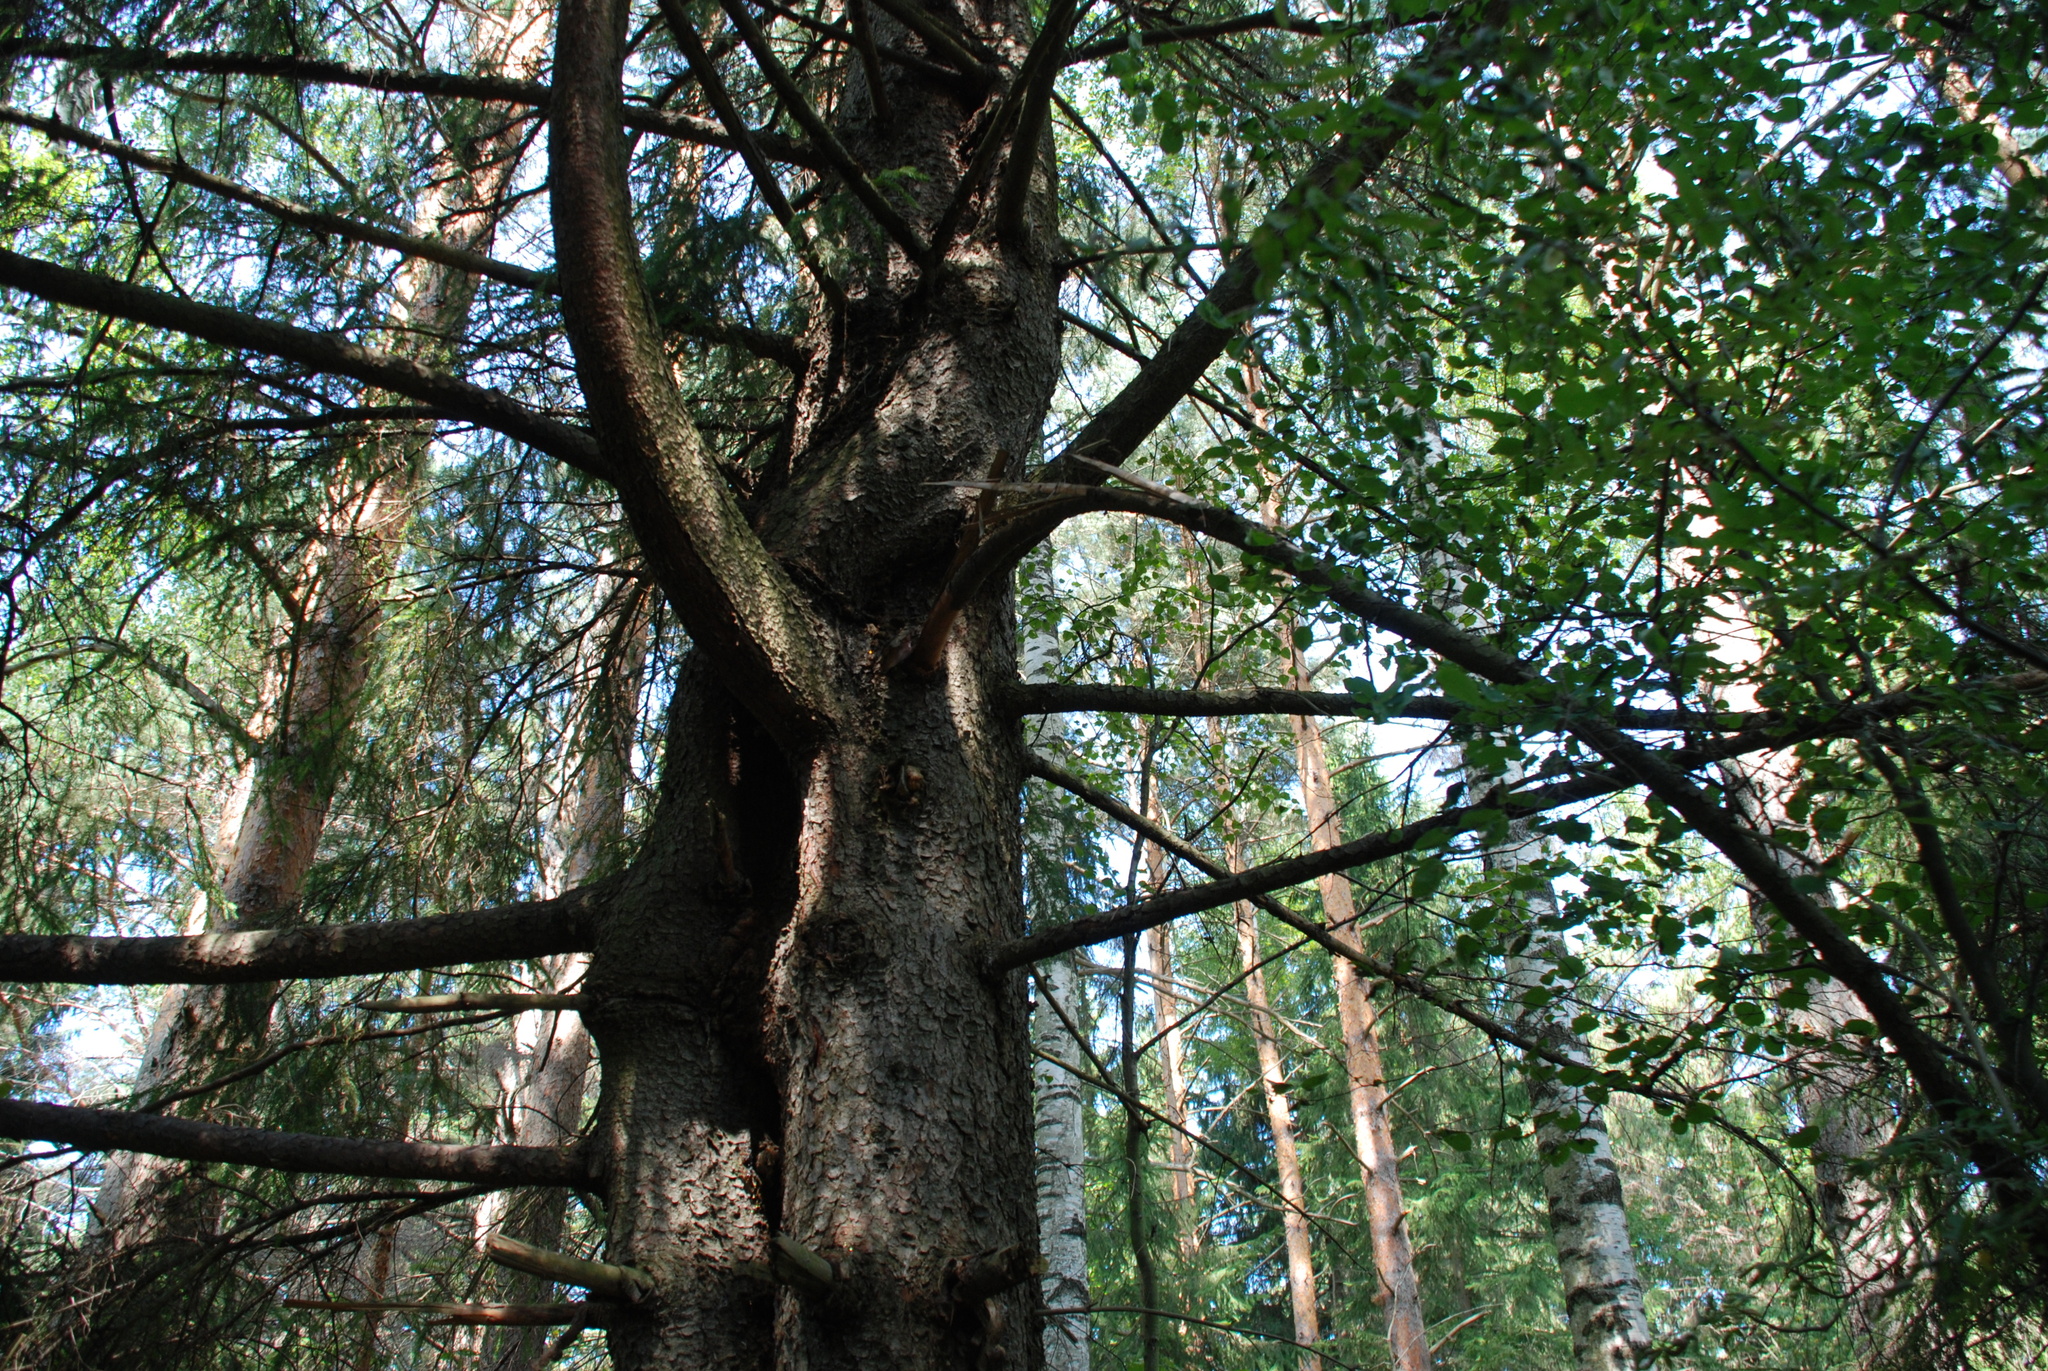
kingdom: Plantae
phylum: Tracheophyta
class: Pinopsida
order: Pinales
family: Pinaceae
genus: Picea
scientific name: Picea abies
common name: Norway spruce
